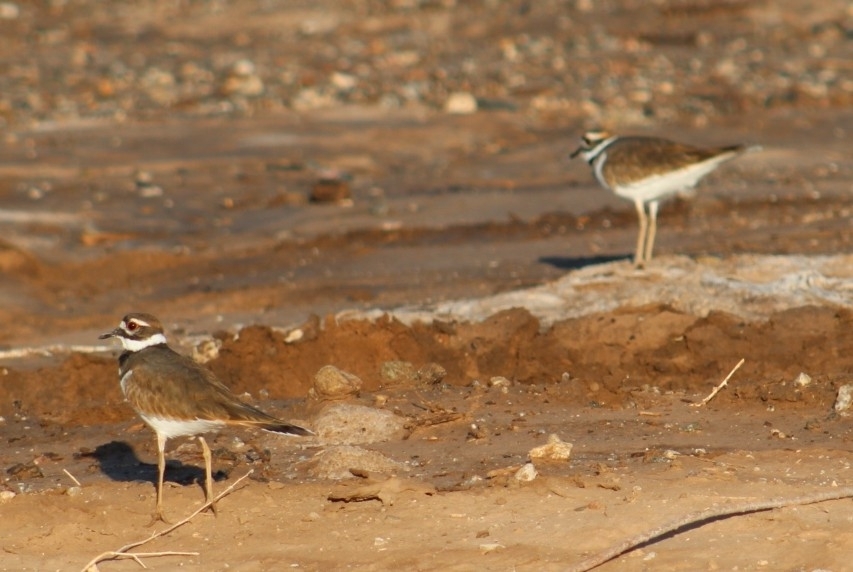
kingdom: Animalia
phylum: Chordata
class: Aves
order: Charadriiformes
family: Charadriidae
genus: Charadrius
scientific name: Charadrius vociferus
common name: Killdeer
